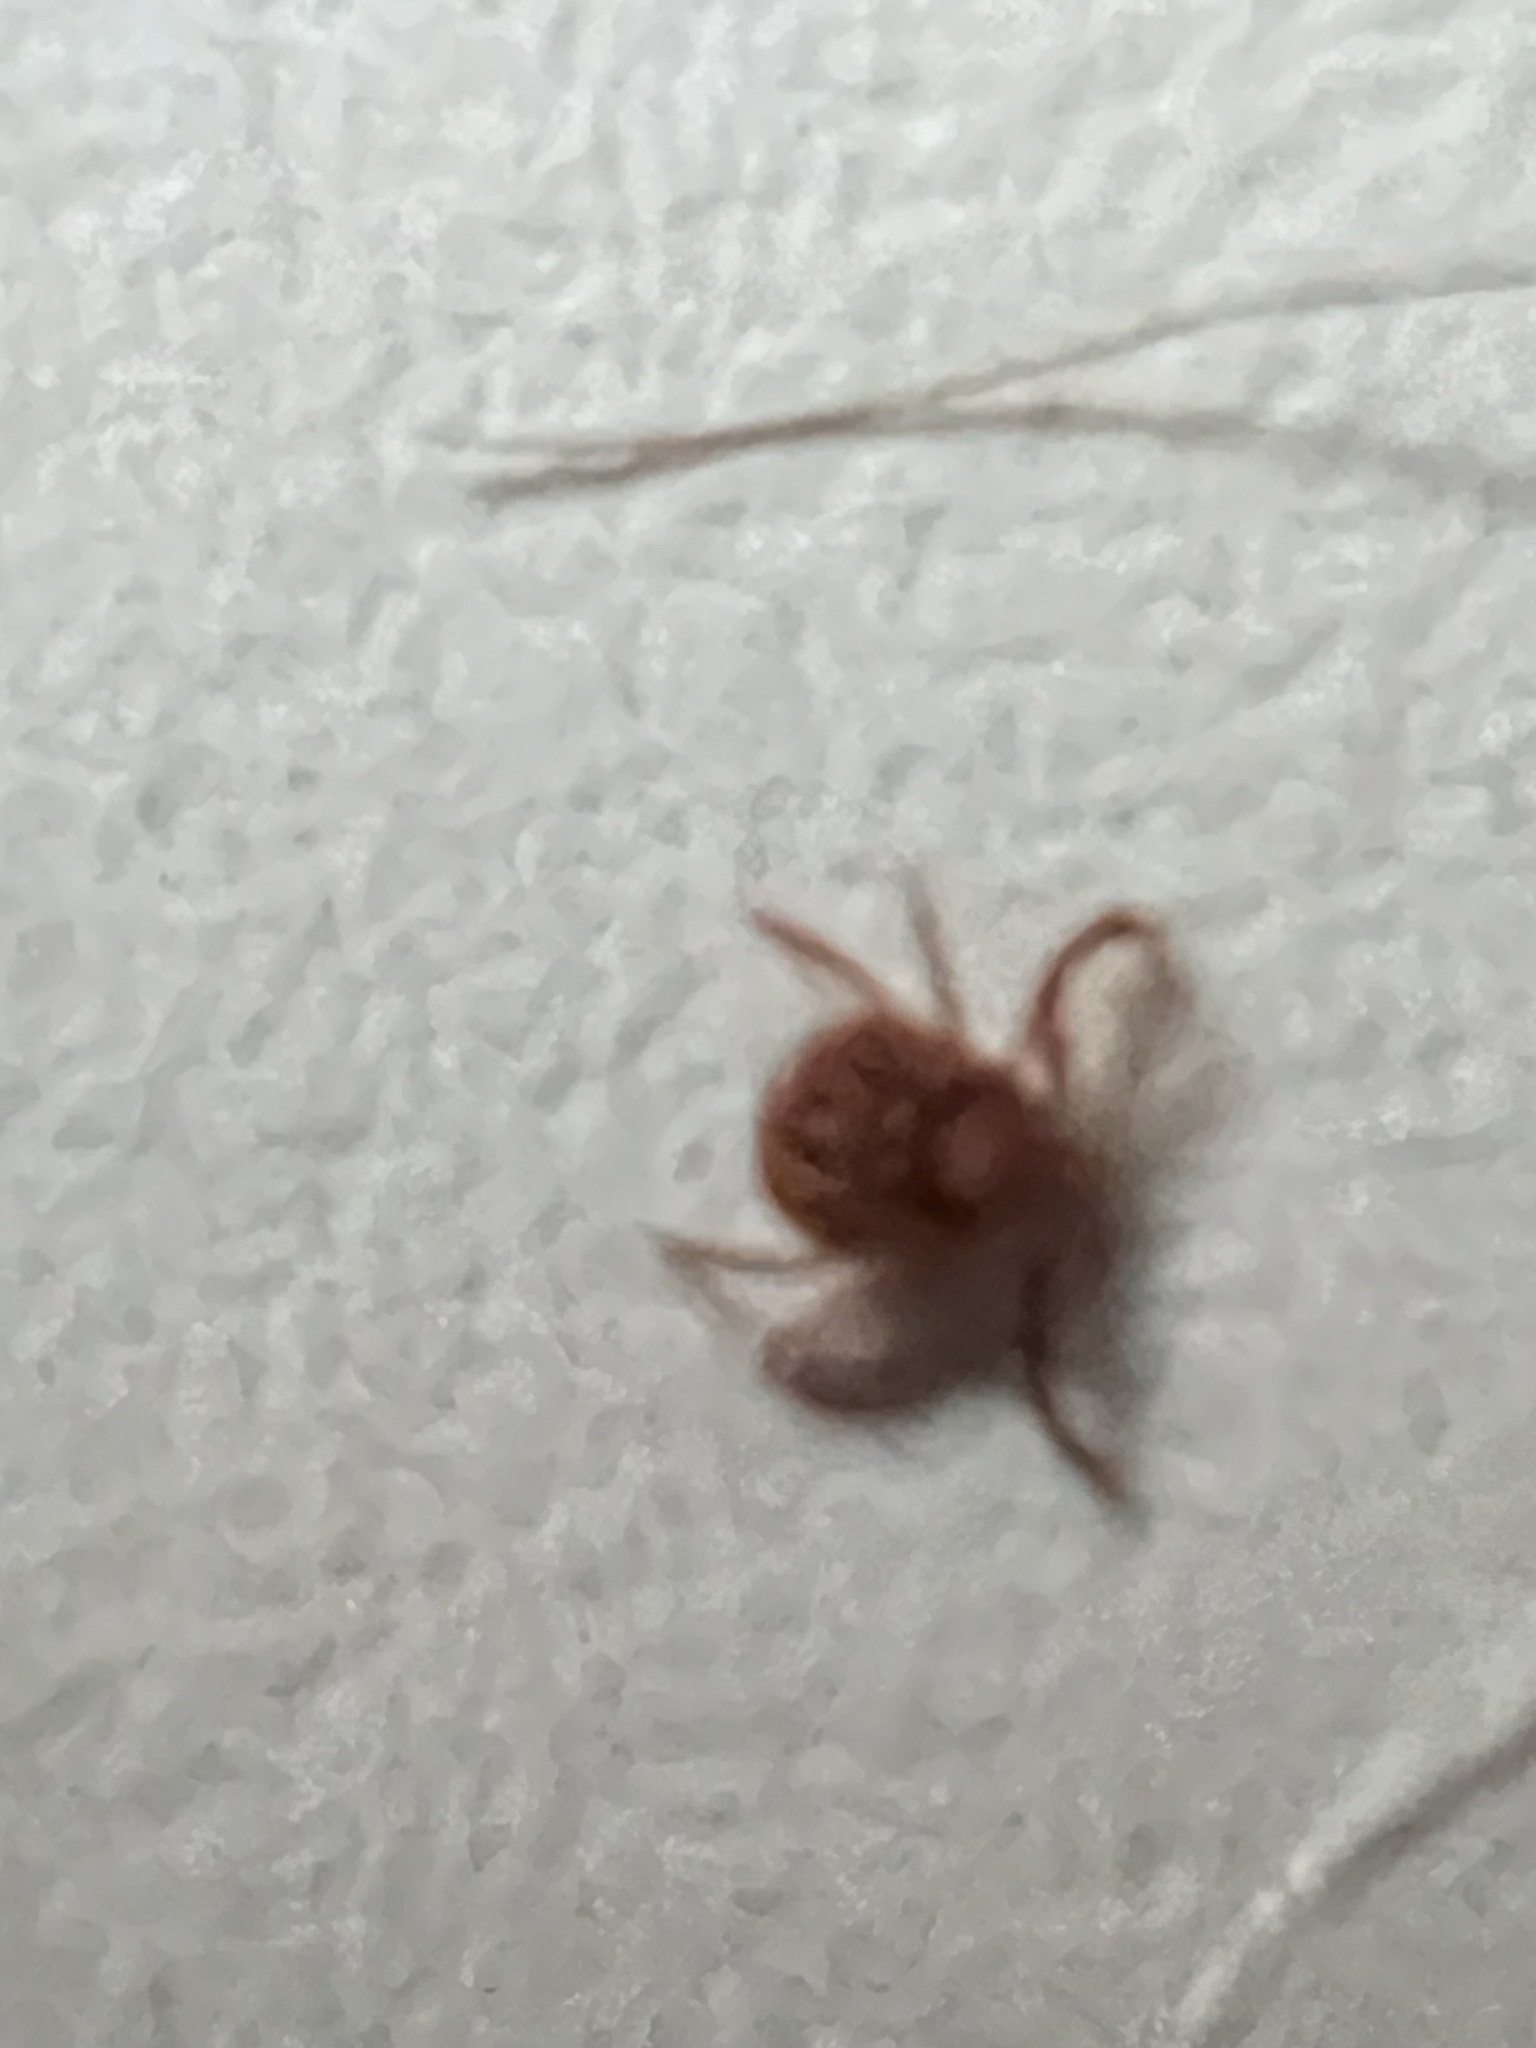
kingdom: Animalia
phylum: Arthropoda
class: Arachnida
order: Ixodida
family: Ixodidae
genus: Amblyomma
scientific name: Amblyomma americanum
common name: Lone star tick
